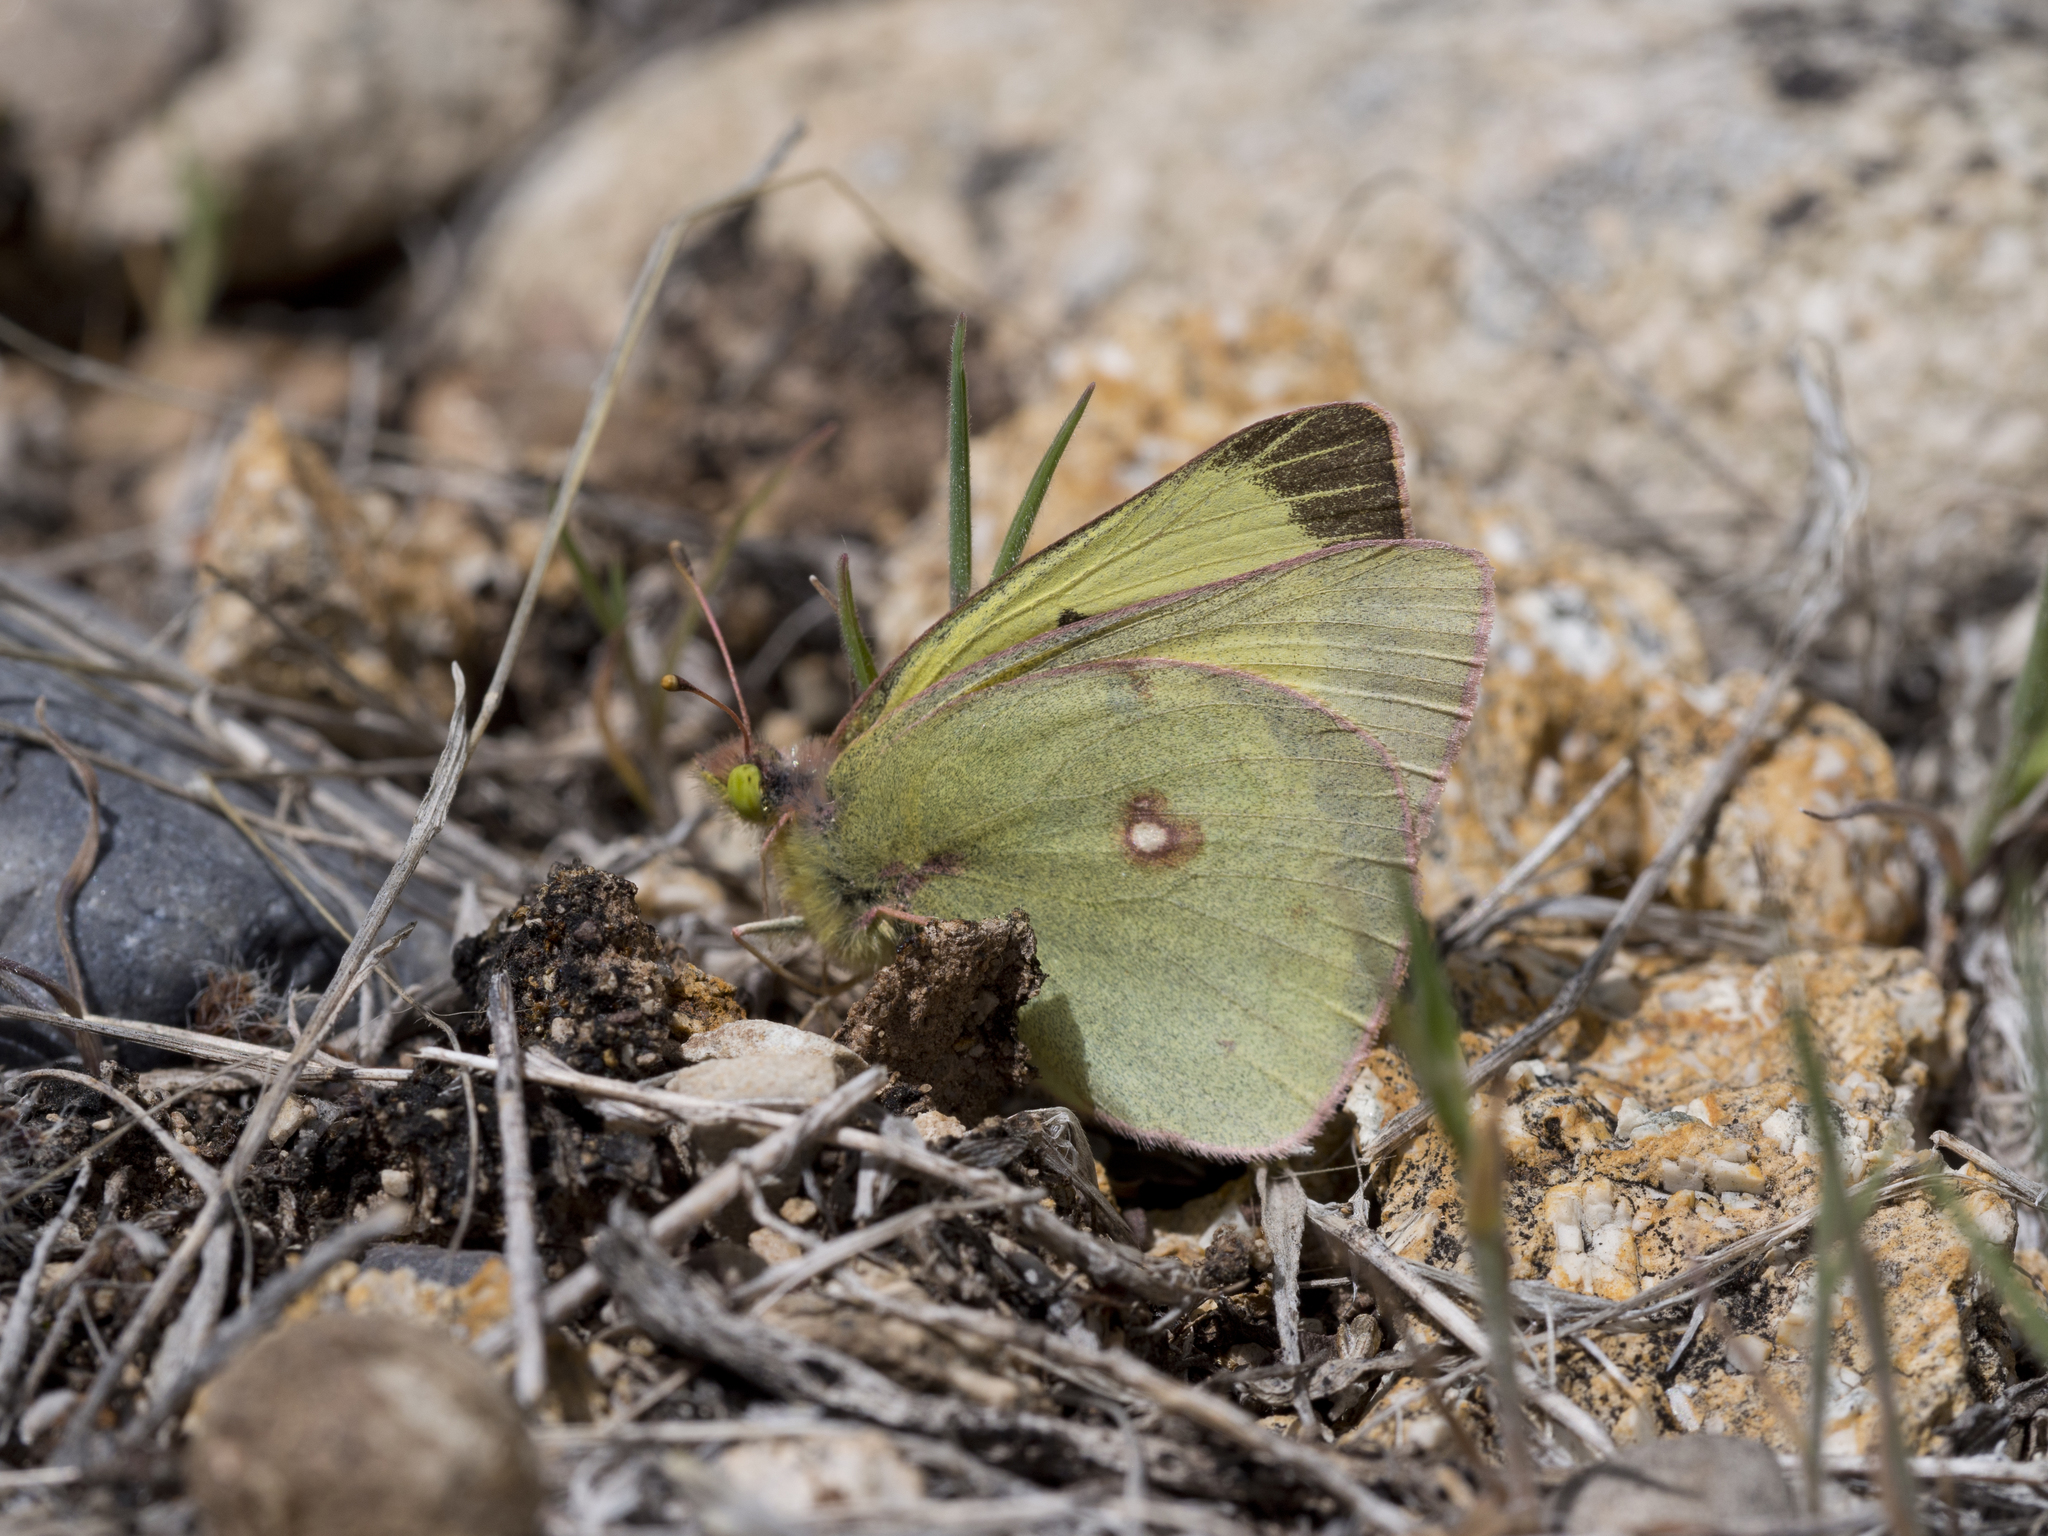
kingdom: Animalia
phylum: Arthropoda
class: Insecta
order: Lepidoptera
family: Pieridae
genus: Colias
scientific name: Colias philodice
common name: Clouded sulphur
